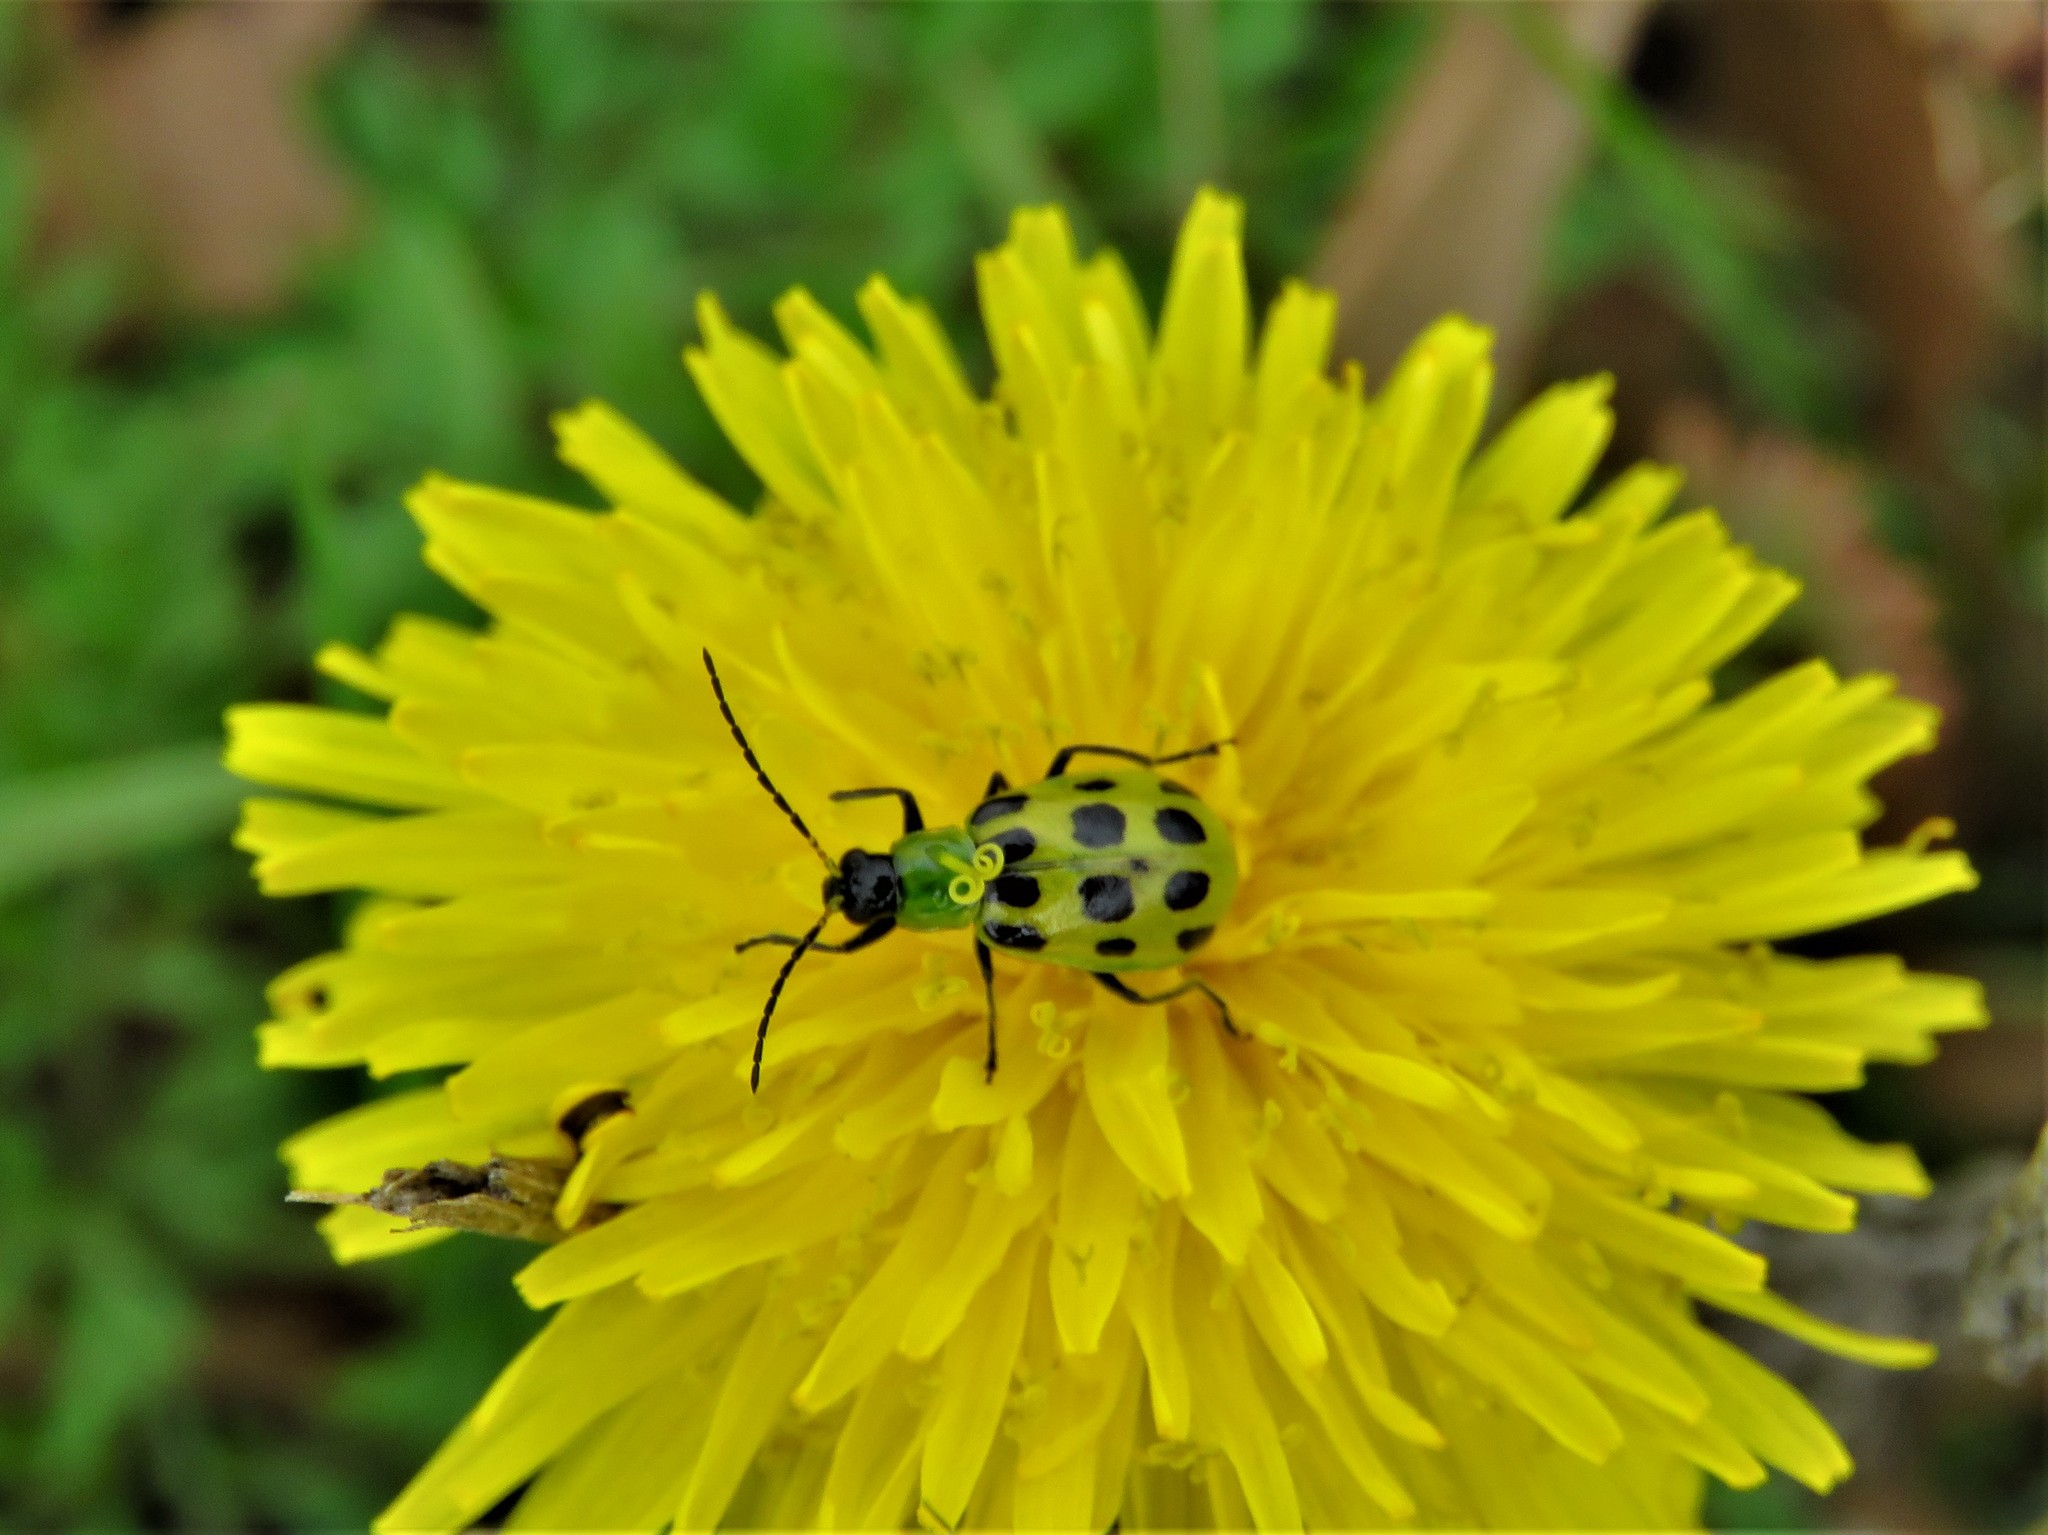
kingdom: Animalia
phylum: Arthropoda
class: Insecta
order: Coleoptera
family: Chrysomelidae
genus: Diabrotica
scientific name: Diabrotica undecimpunctata
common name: Spotted cucumber beetle
